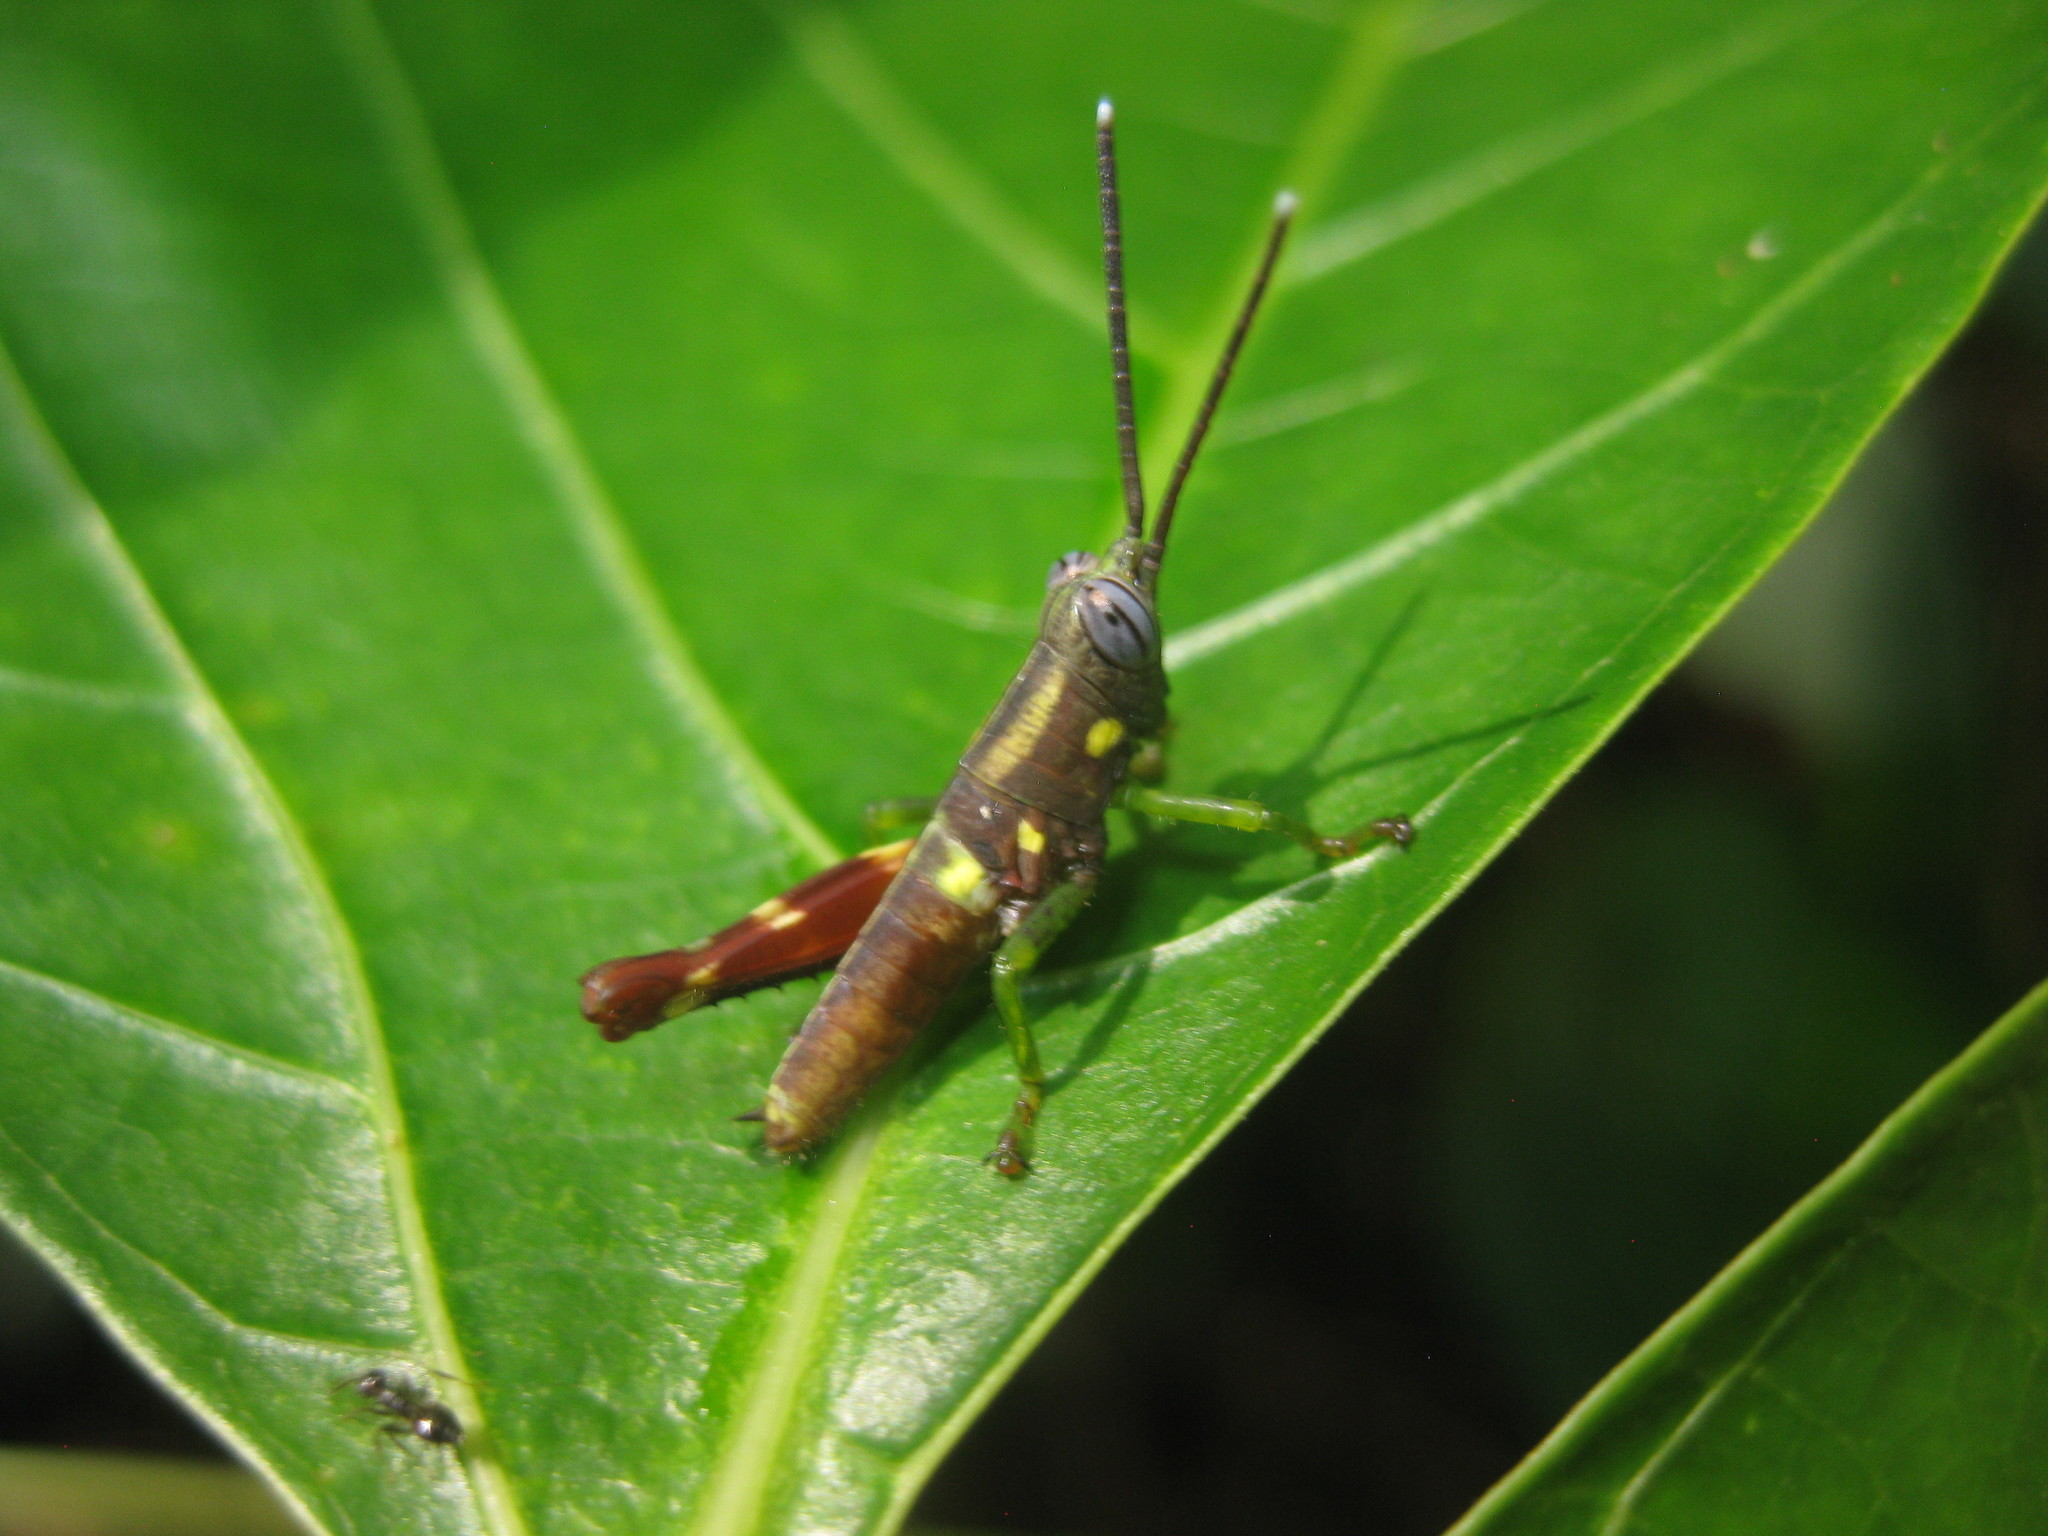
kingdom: Animalia
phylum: Arthropoda
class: Insecta
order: Orthoptera
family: Acrididae
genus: Syntomacris
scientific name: Syntomacris guttulosa
